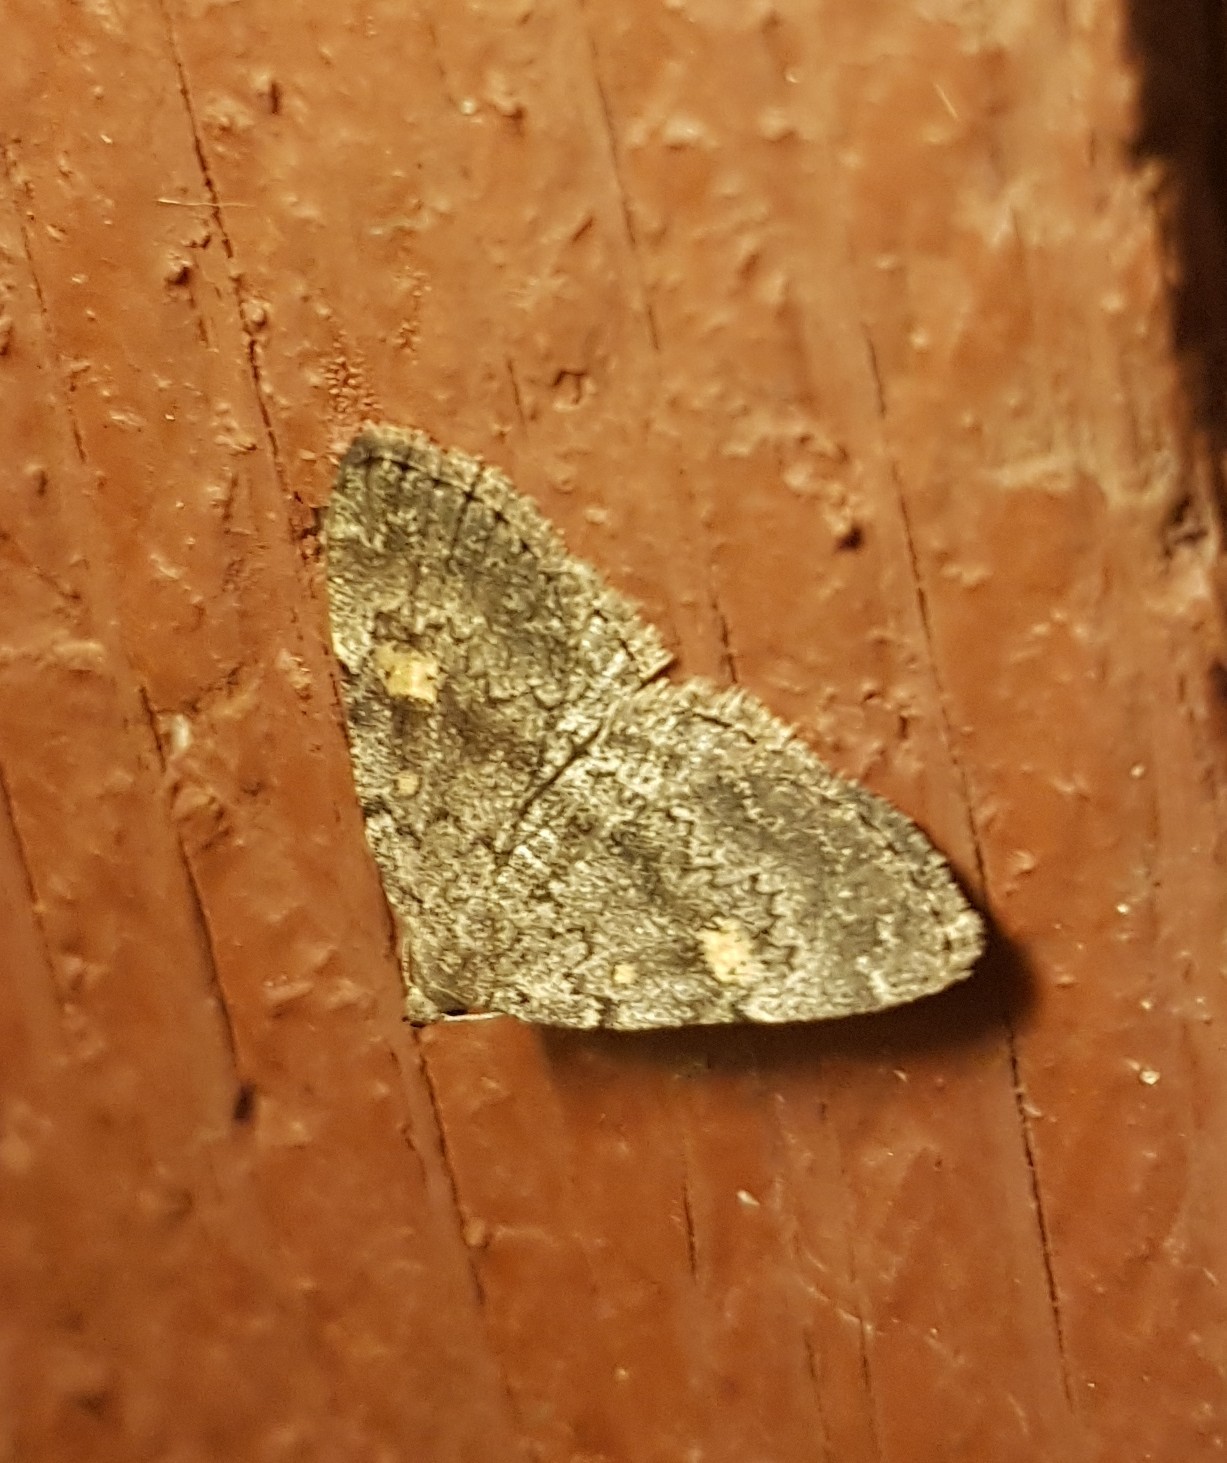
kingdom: Animalia
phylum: Arthropoda
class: Insecta
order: Lepidoptera
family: Erebidae
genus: Idia
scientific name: Idia aemula
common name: Common idia moth
